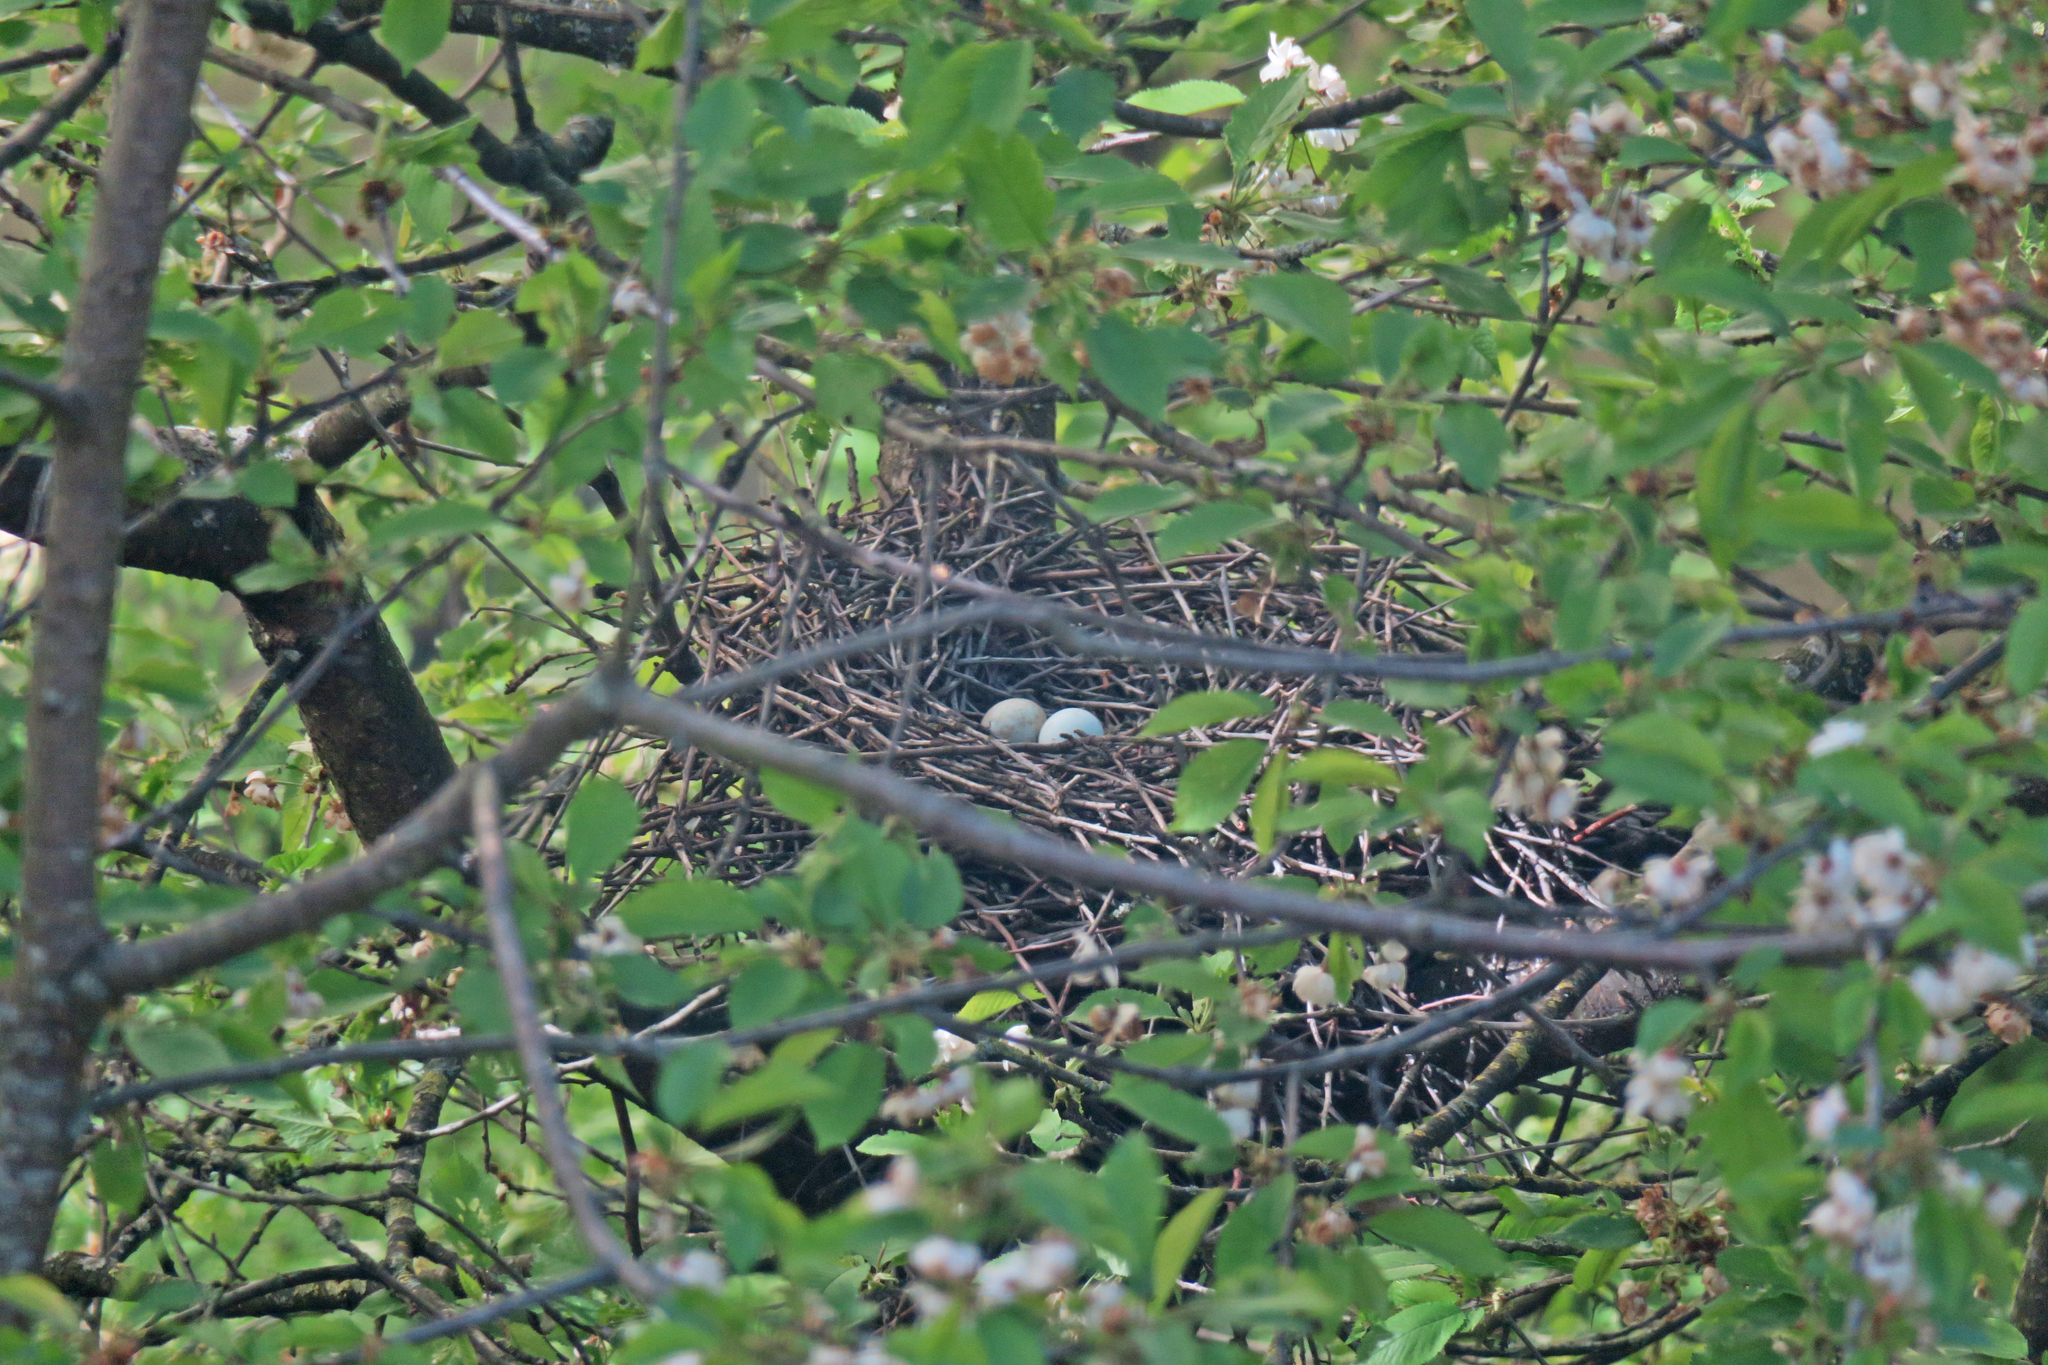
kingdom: Animalia
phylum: Chordata
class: Aves
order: Accipitriformes
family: Accipitridae
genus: Accipiter
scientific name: Accipiter nisus
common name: Eurasian sparrowhawk
